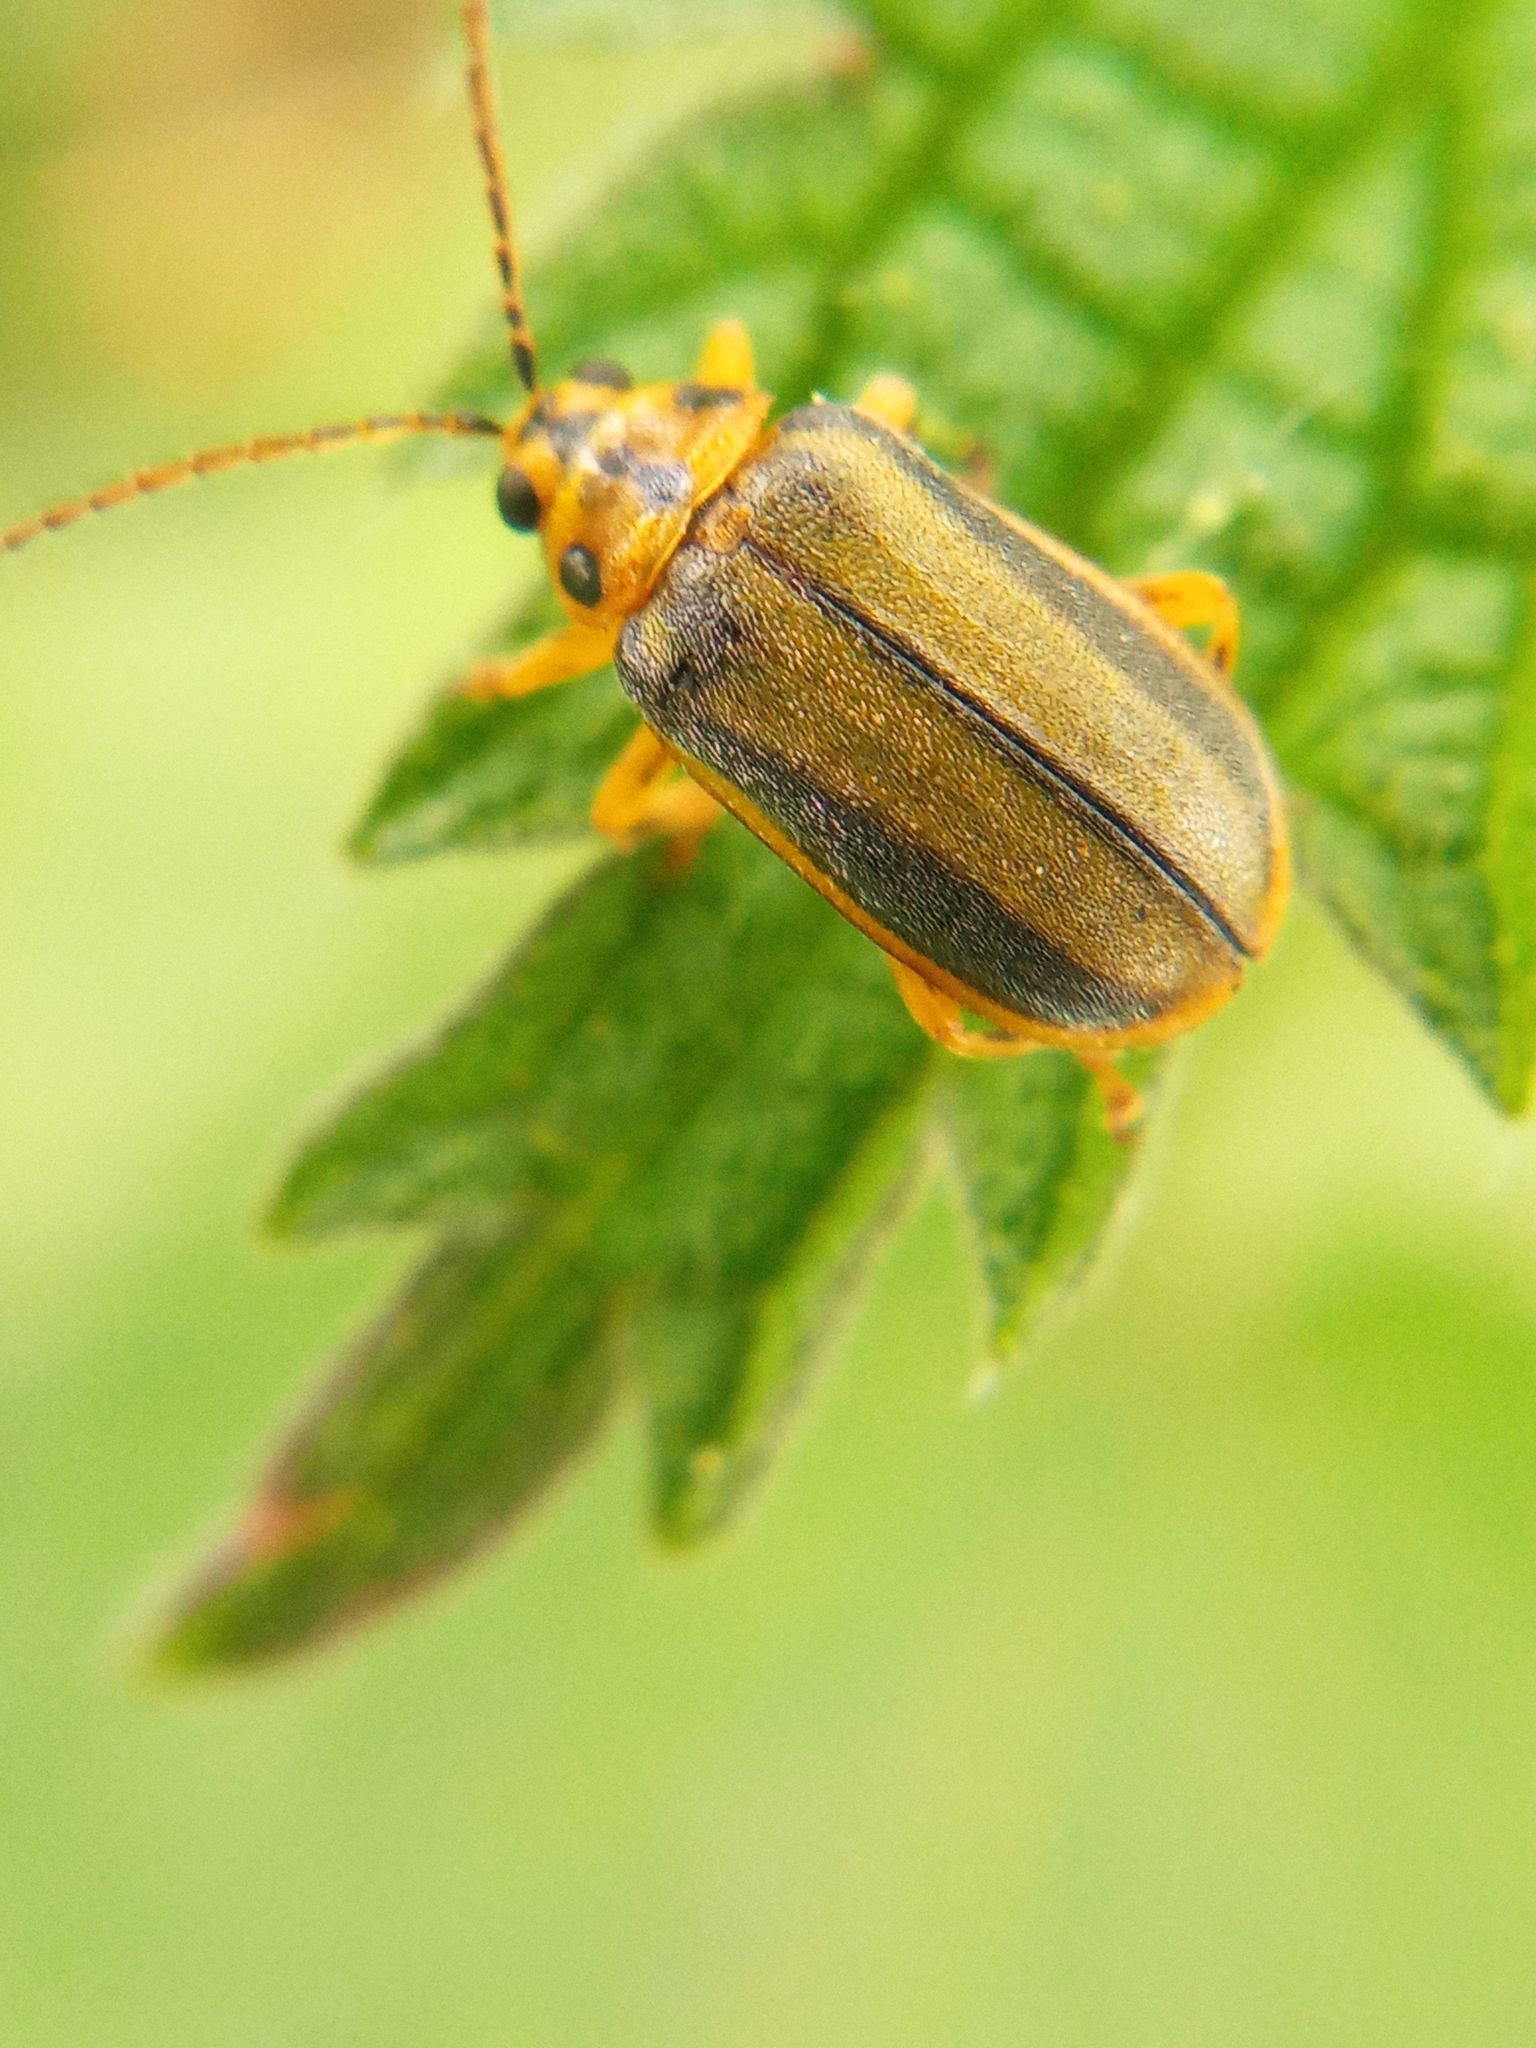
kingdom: Animalia
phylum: Arthropoda
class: Insecta
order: Coleoptera
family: Chrysomelidae
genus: Xanthogaleruca
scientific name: Xanthogaleruca luteola
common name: Elm leaf beetle
